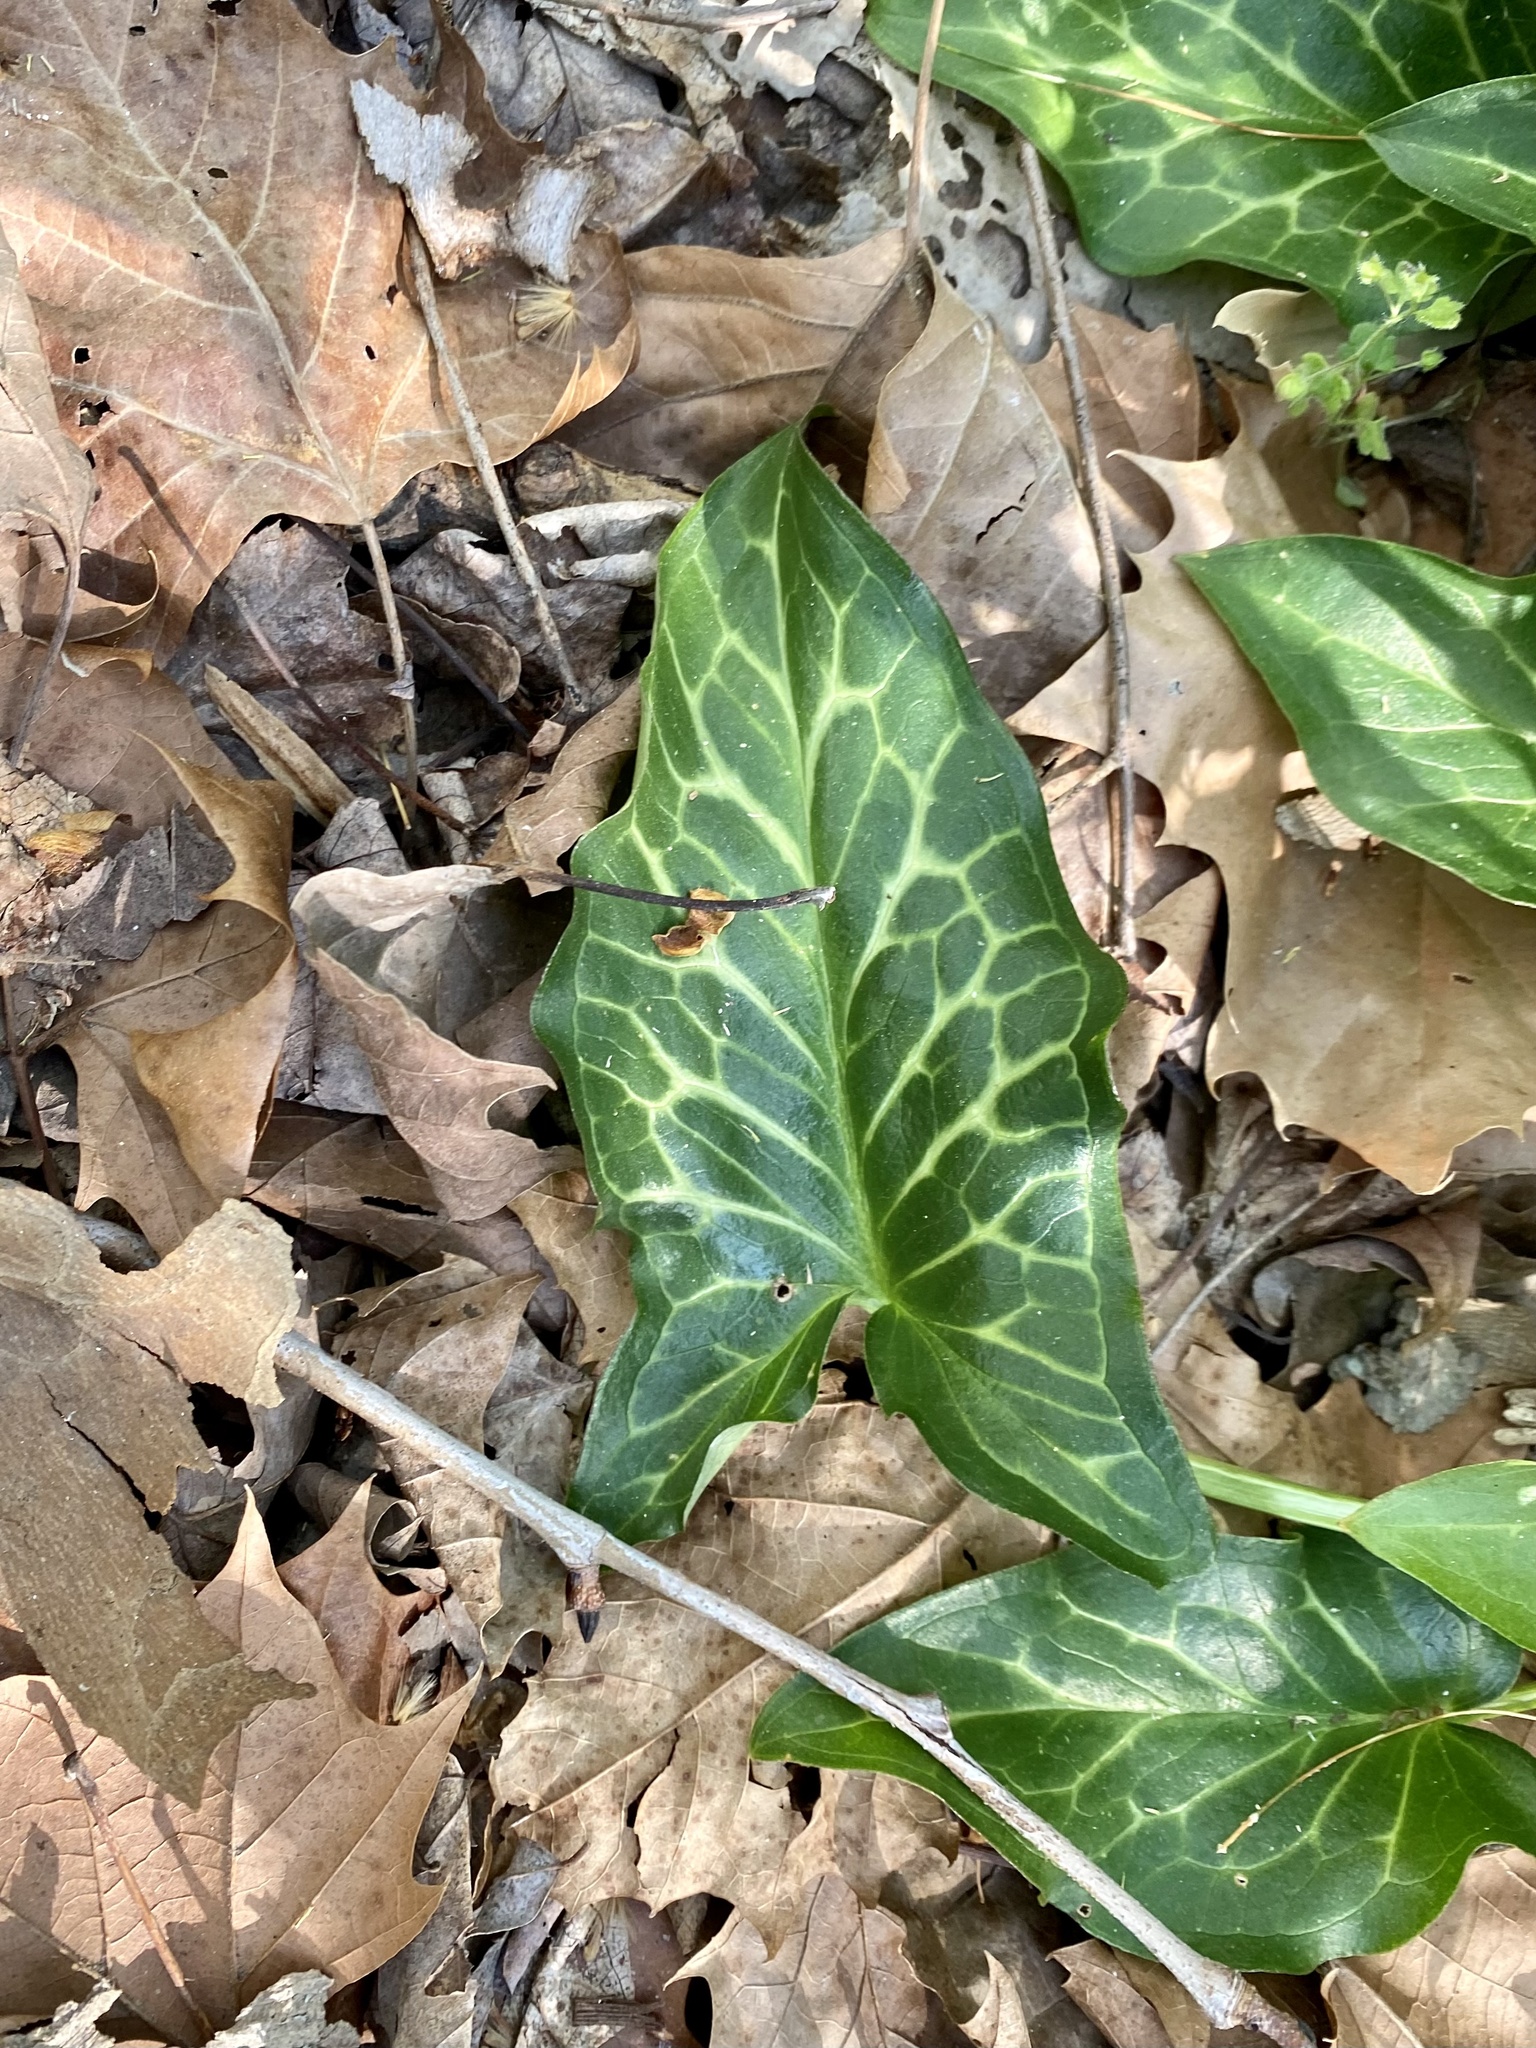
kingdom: Plantae
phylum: Tracheophyta
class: Liliopsida
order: Alismatales
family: Araceae
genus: Arum
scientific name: Arum italicum
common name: Italian lords-and-ladies
